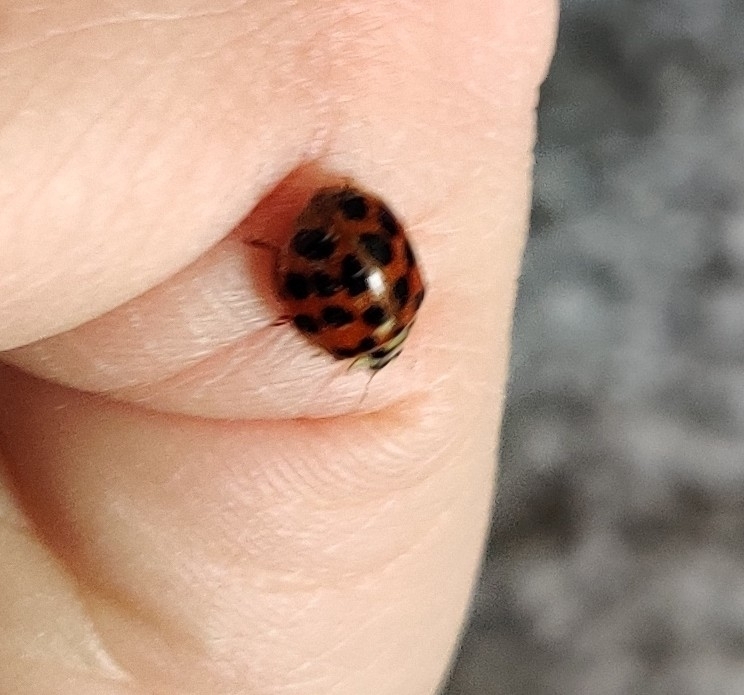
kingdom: Animalia
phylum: Arthropoda
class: Insecta
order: Coleoptera
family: Coccinellidae
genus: Harmonia
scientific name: Harmonia axyridis
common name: Harlequin ladybird
